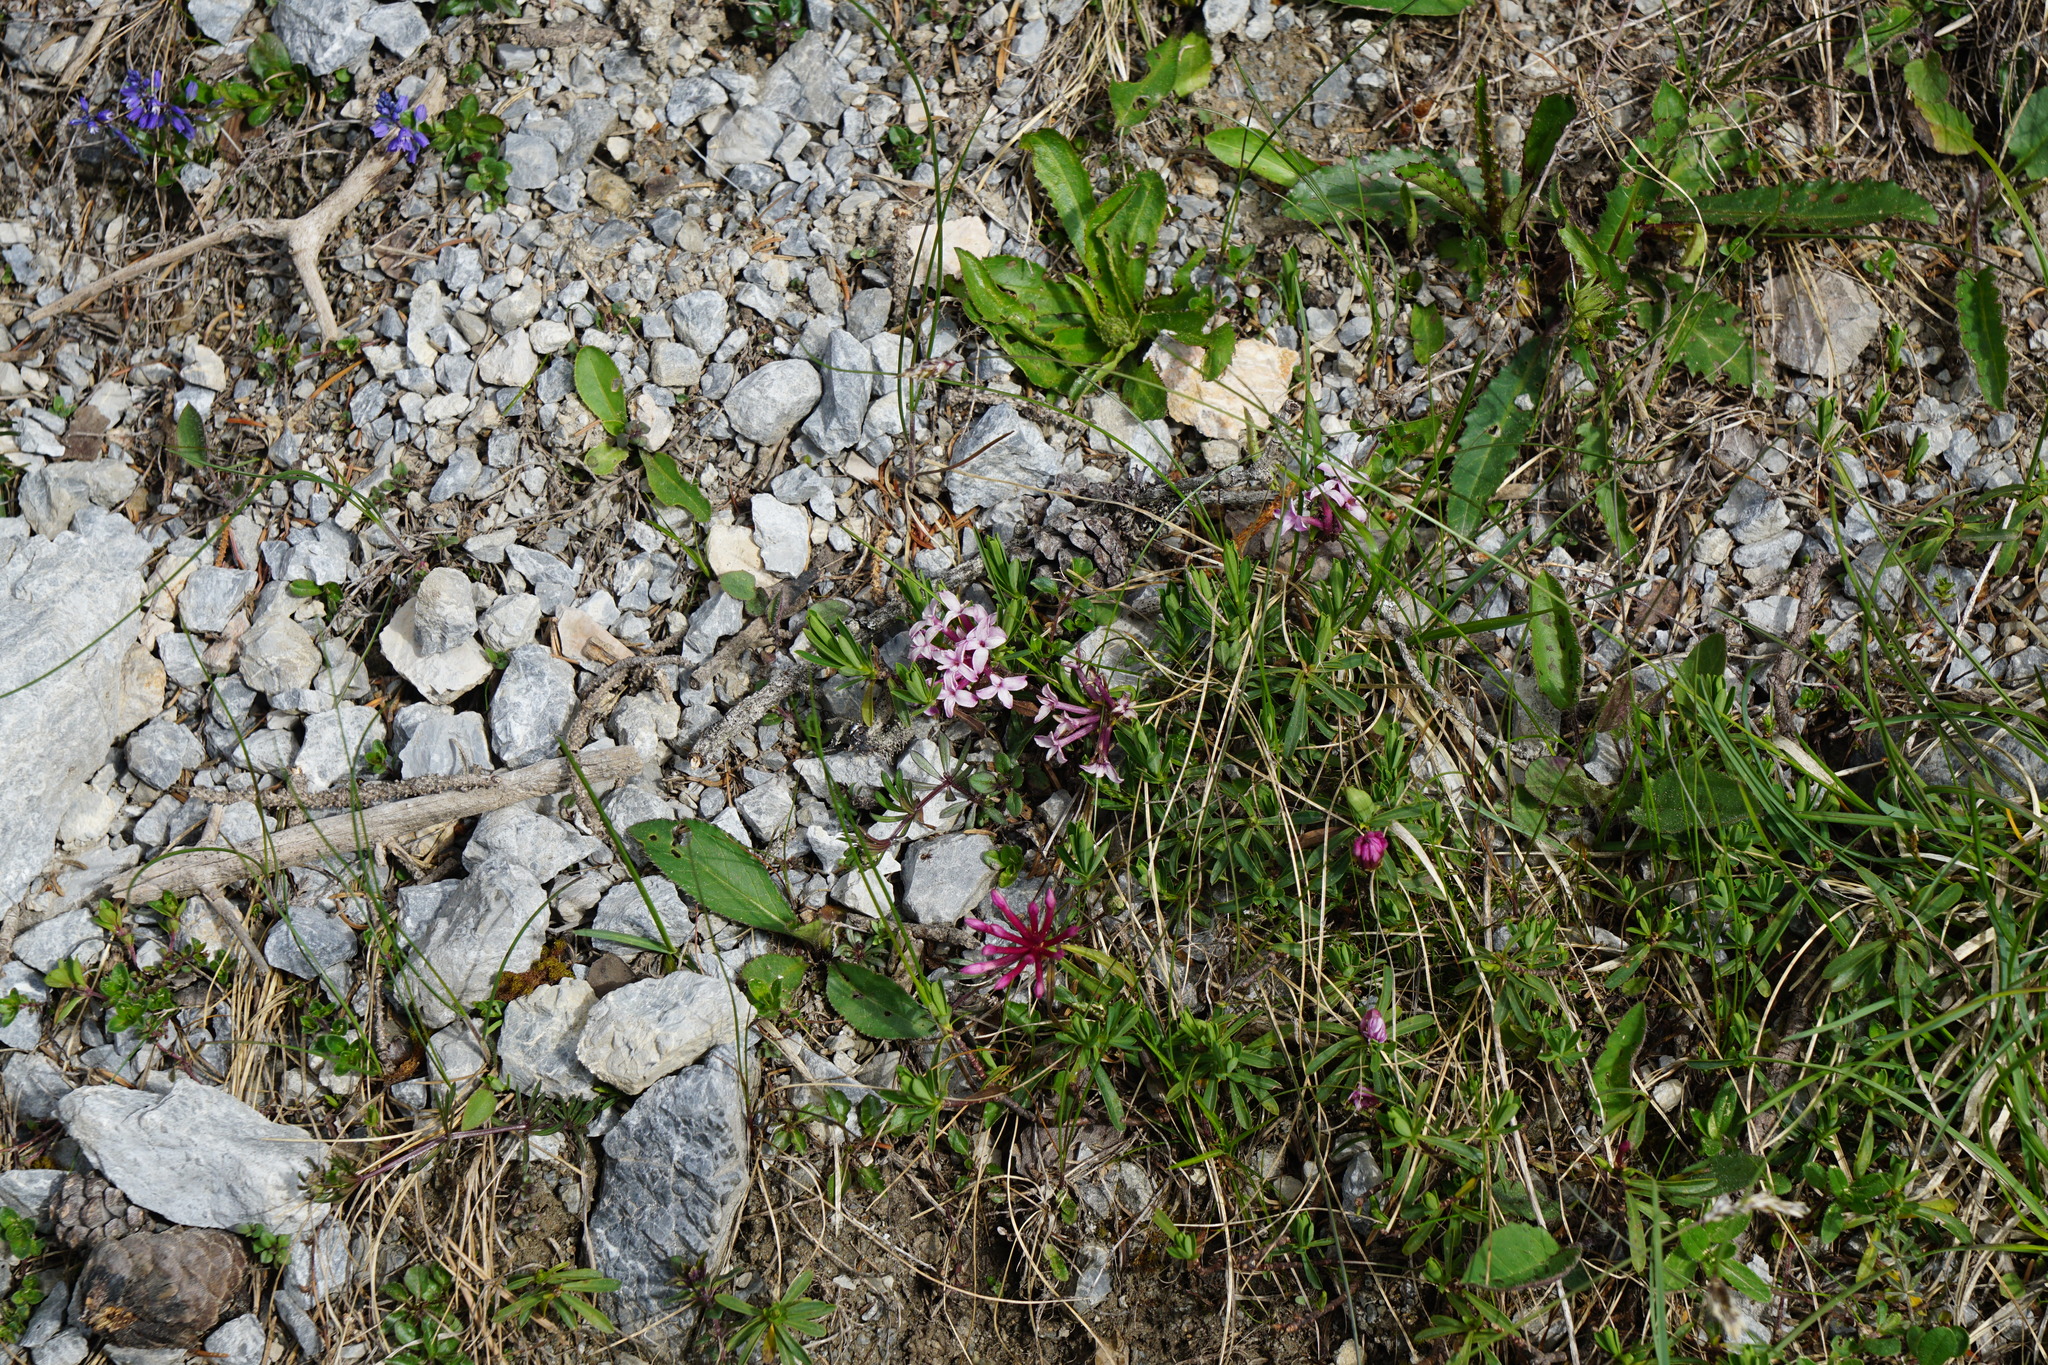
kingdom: Plantae
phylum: Tracheophyta
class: Magnoliopsida
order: Malvales
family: Thymelaeaceae
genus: Daphne
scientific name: Daphne striata
